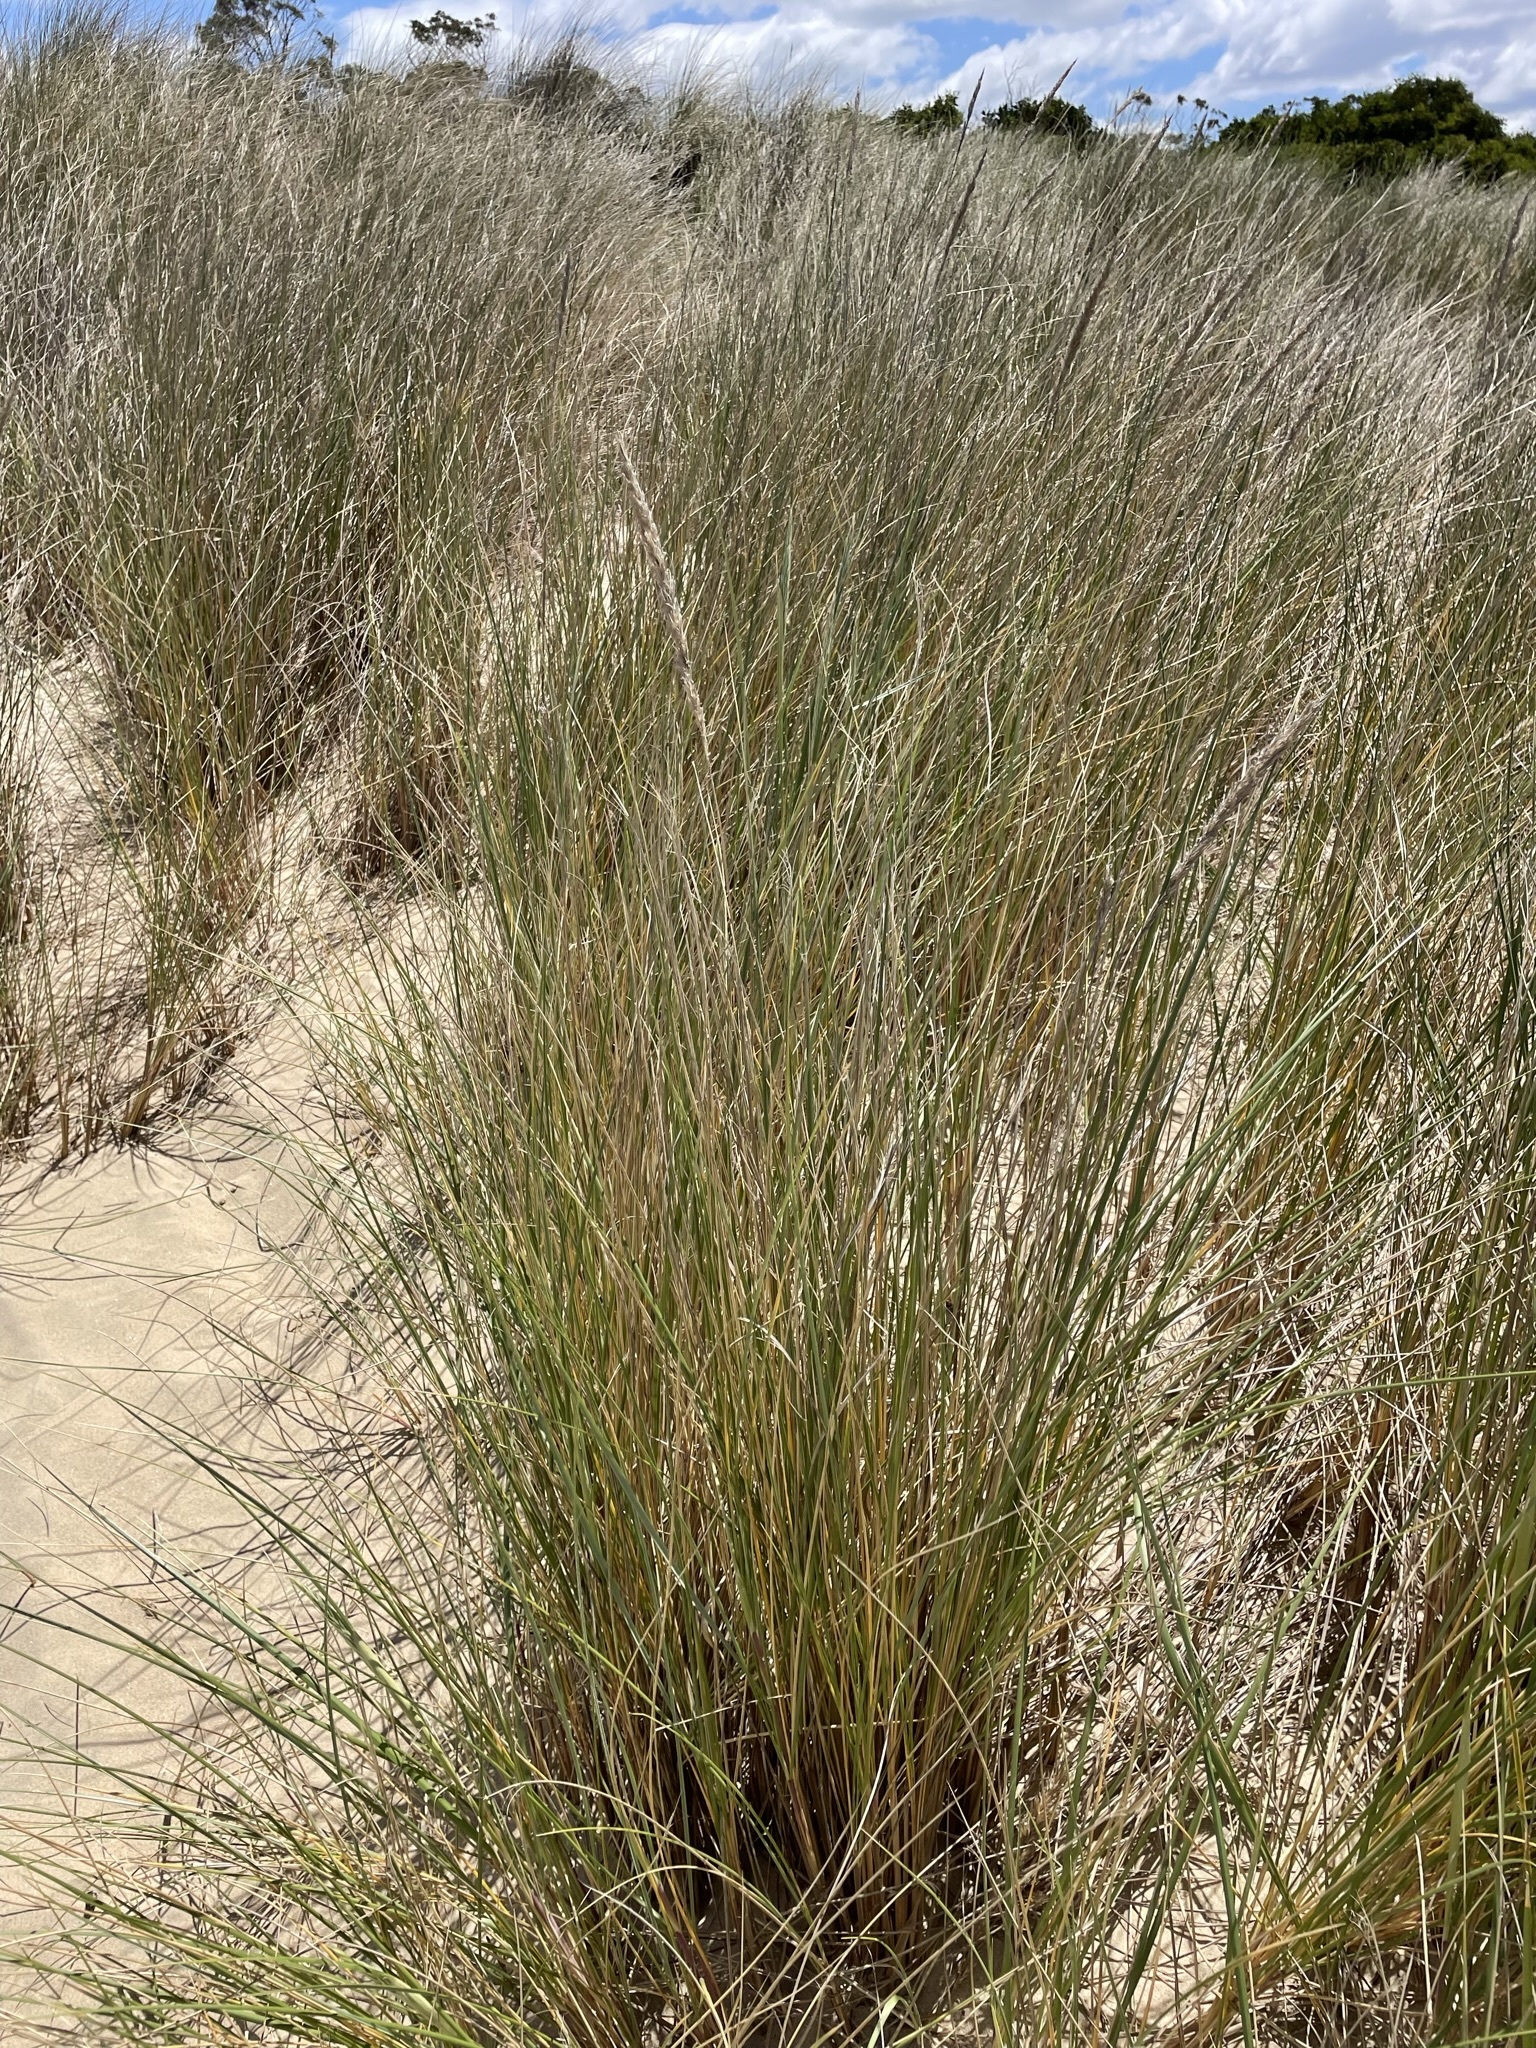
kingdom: Plantae
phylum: Tracheophyta
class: Liliopsida
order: Poales
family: Poaceae
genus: Calamagrostis
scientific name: Calamagrostis arenaria
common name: European beachgrass
